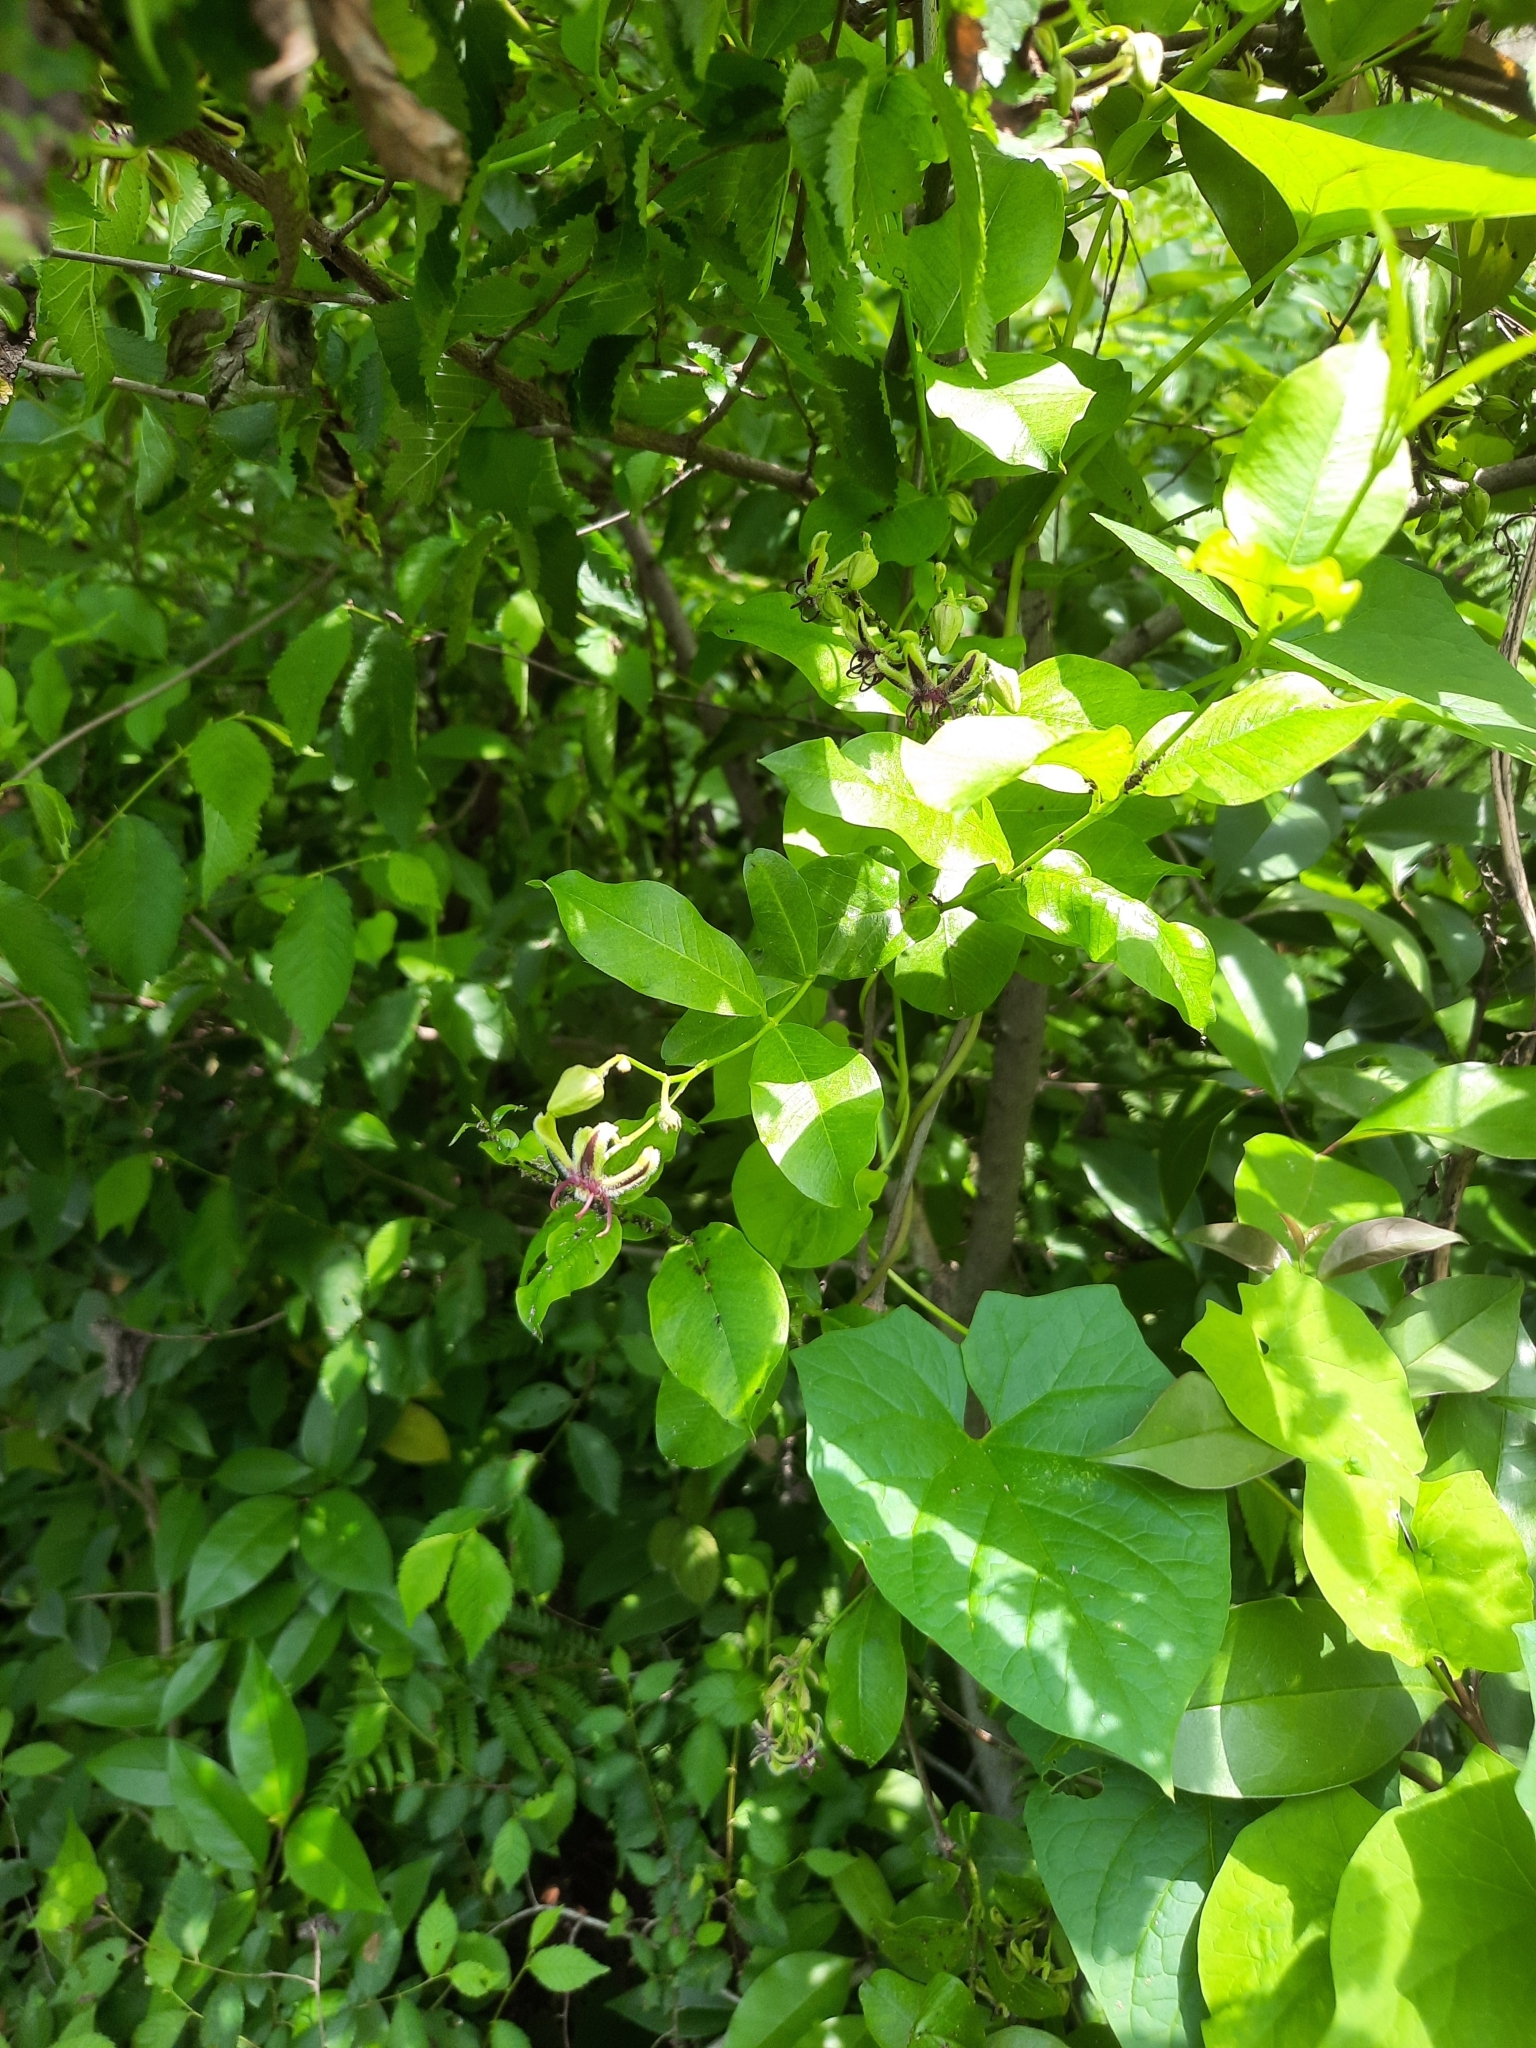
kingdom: Plantae
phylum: Tracheophyta
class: Magnoliopsida
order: Gentianales
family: Apocynaceae
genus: Periploca
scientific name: Periploca graeca
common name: Silkvine
